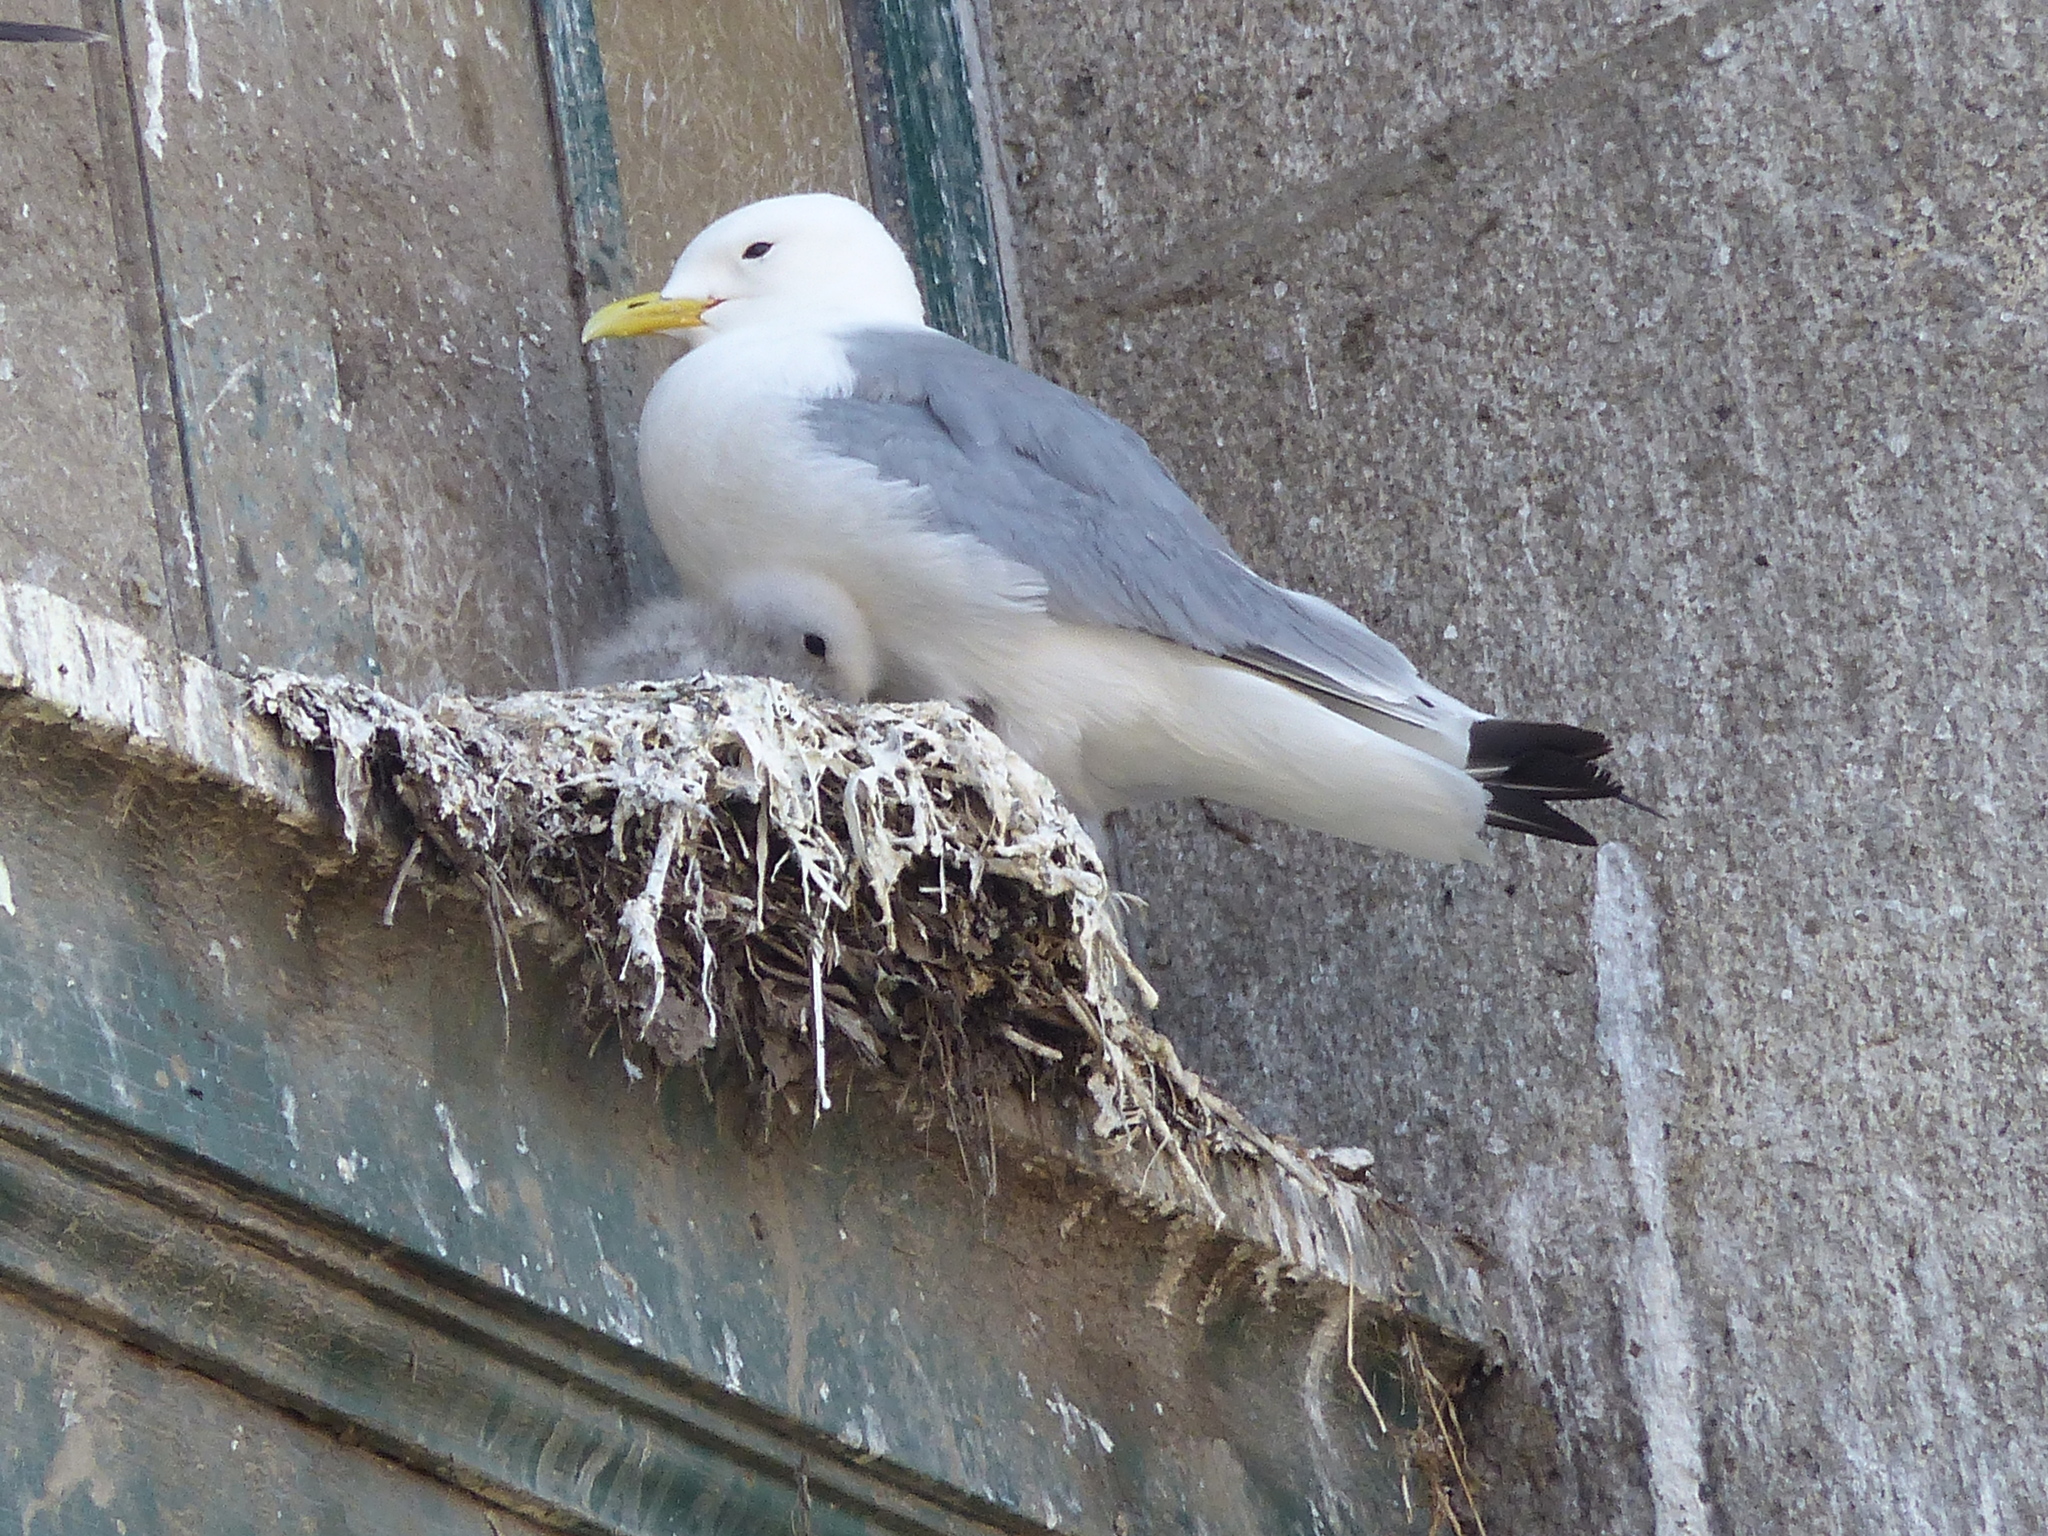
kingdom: Animalia
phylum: Chordata
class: Aves
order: Charadriiformes
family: Laridae
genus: Rissa
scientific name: Rissa tridactyla
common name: Black-legged kittiwake
